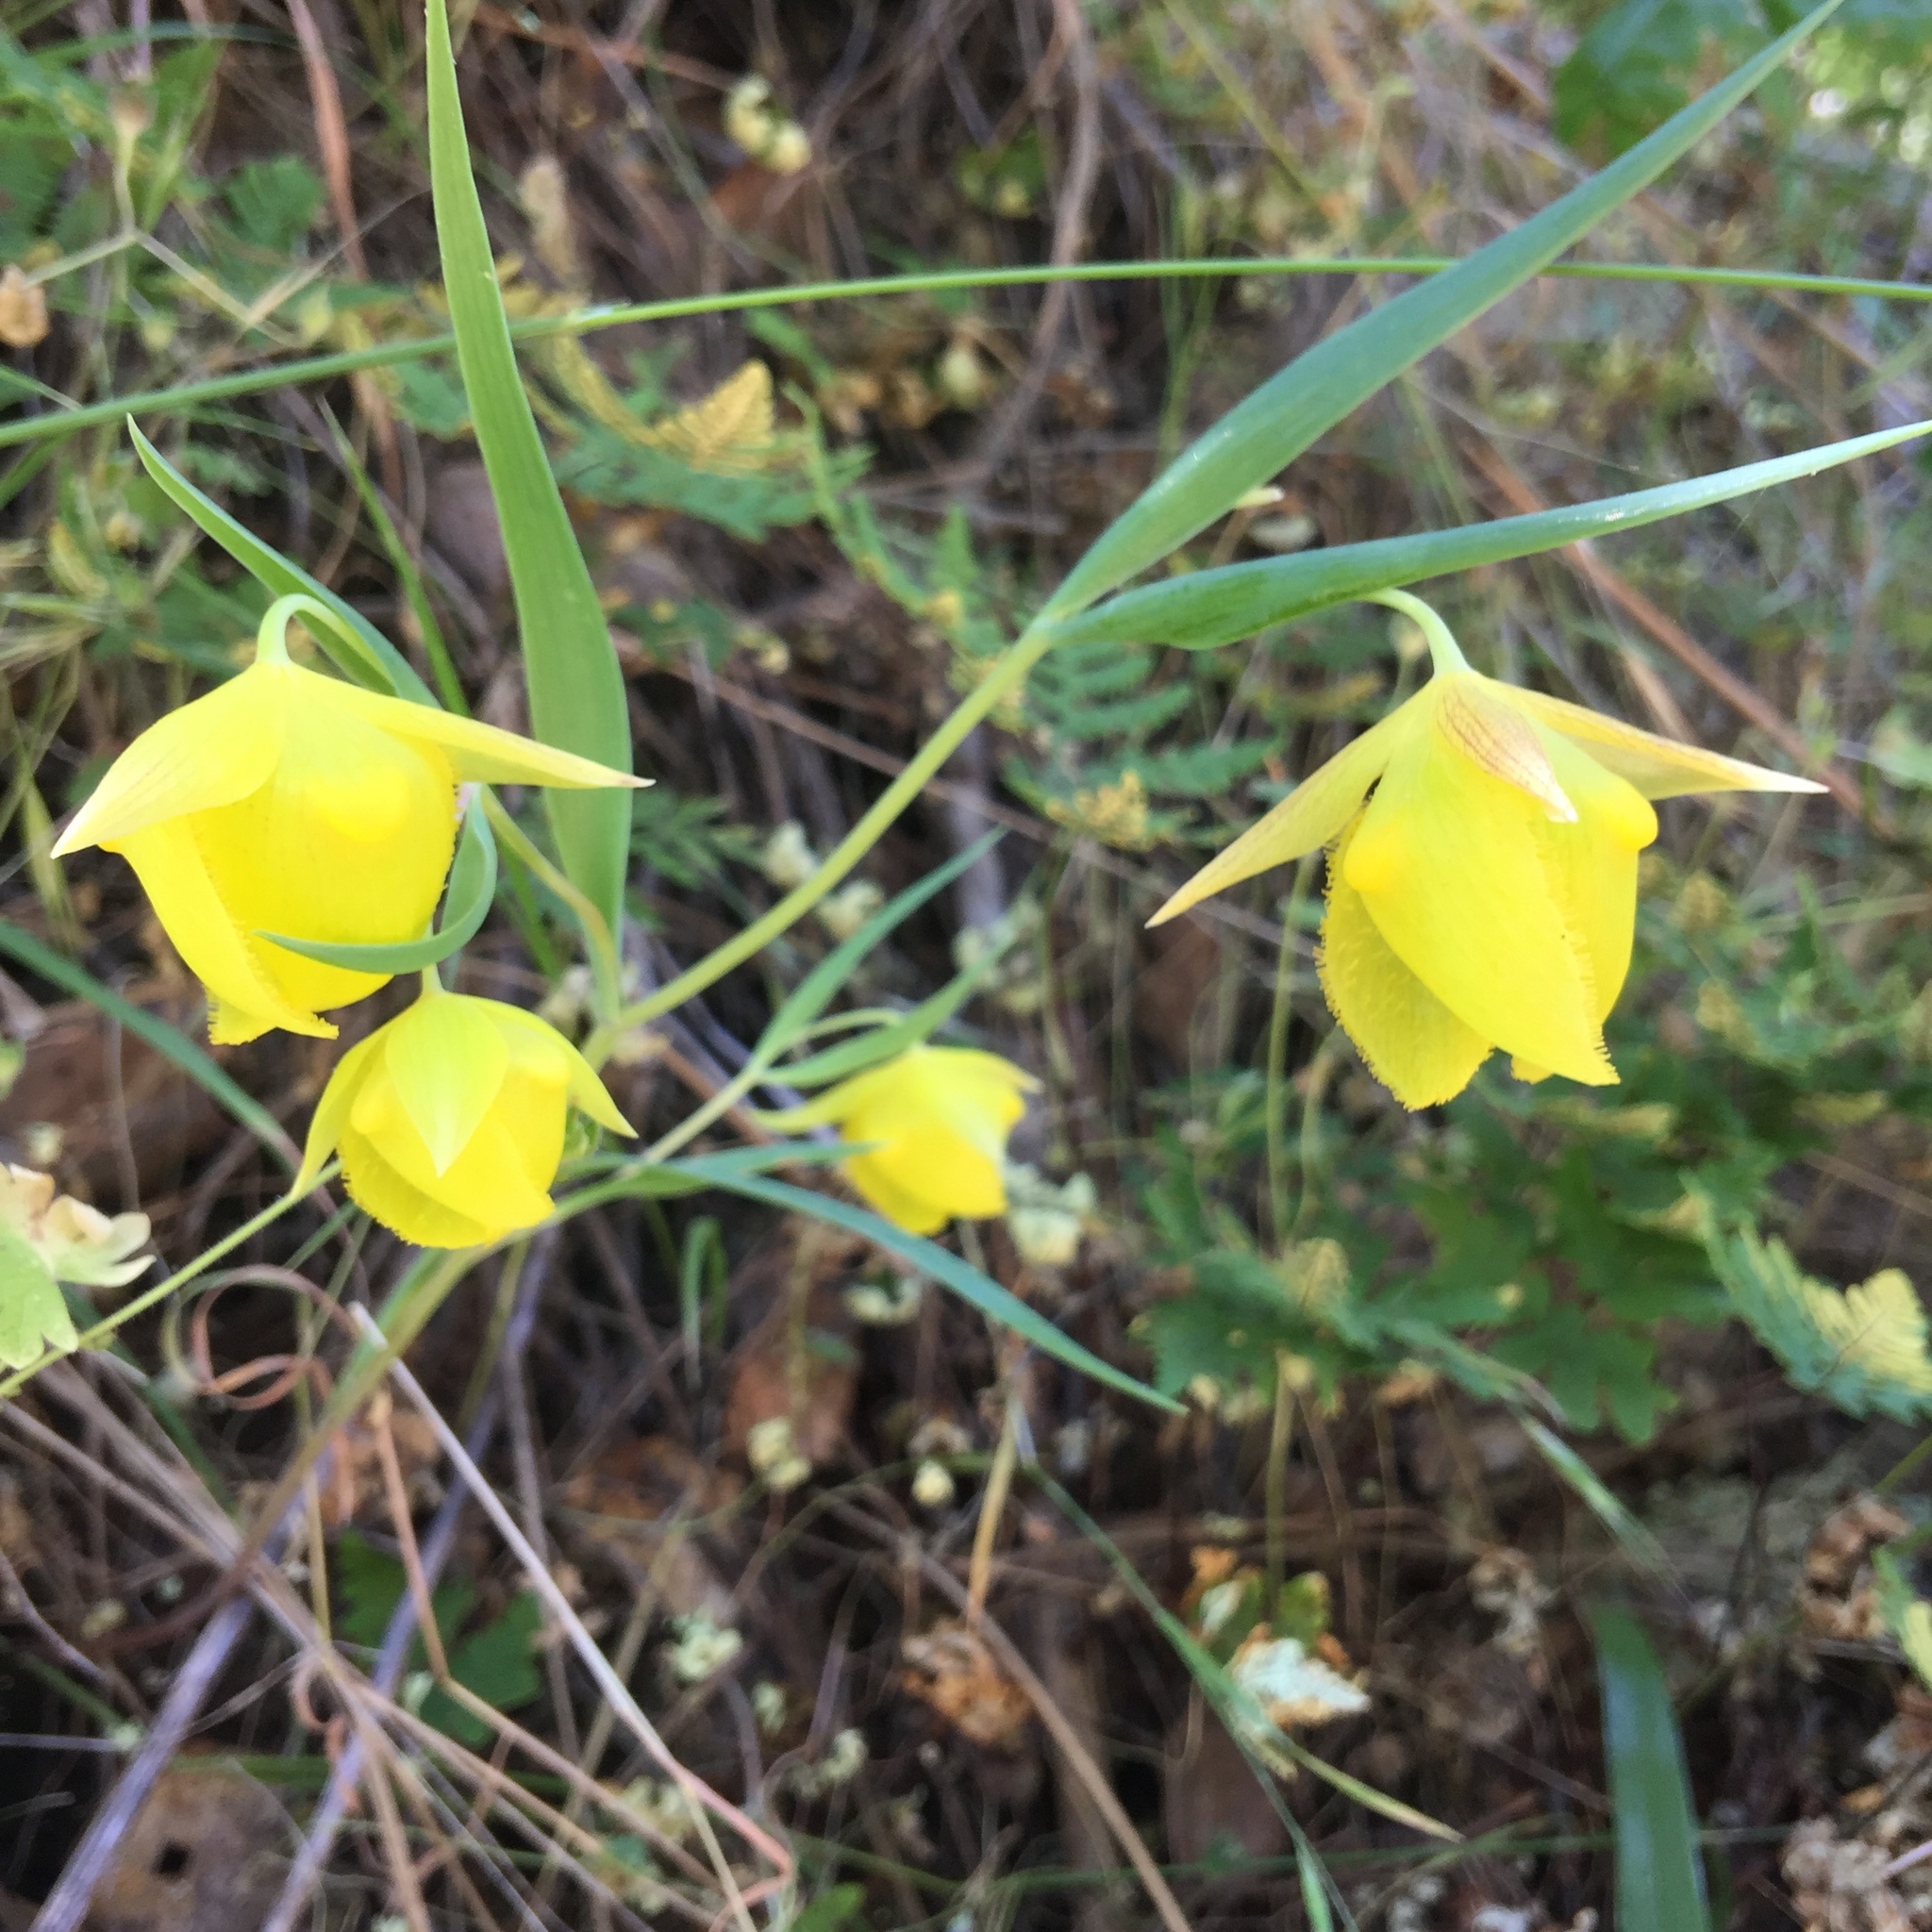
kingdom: Plantae
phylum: Tracheophyta
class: Liliopsida
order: Liliales
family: Liliaceae
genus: Calochortus
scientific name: Calochortus pulchellus
